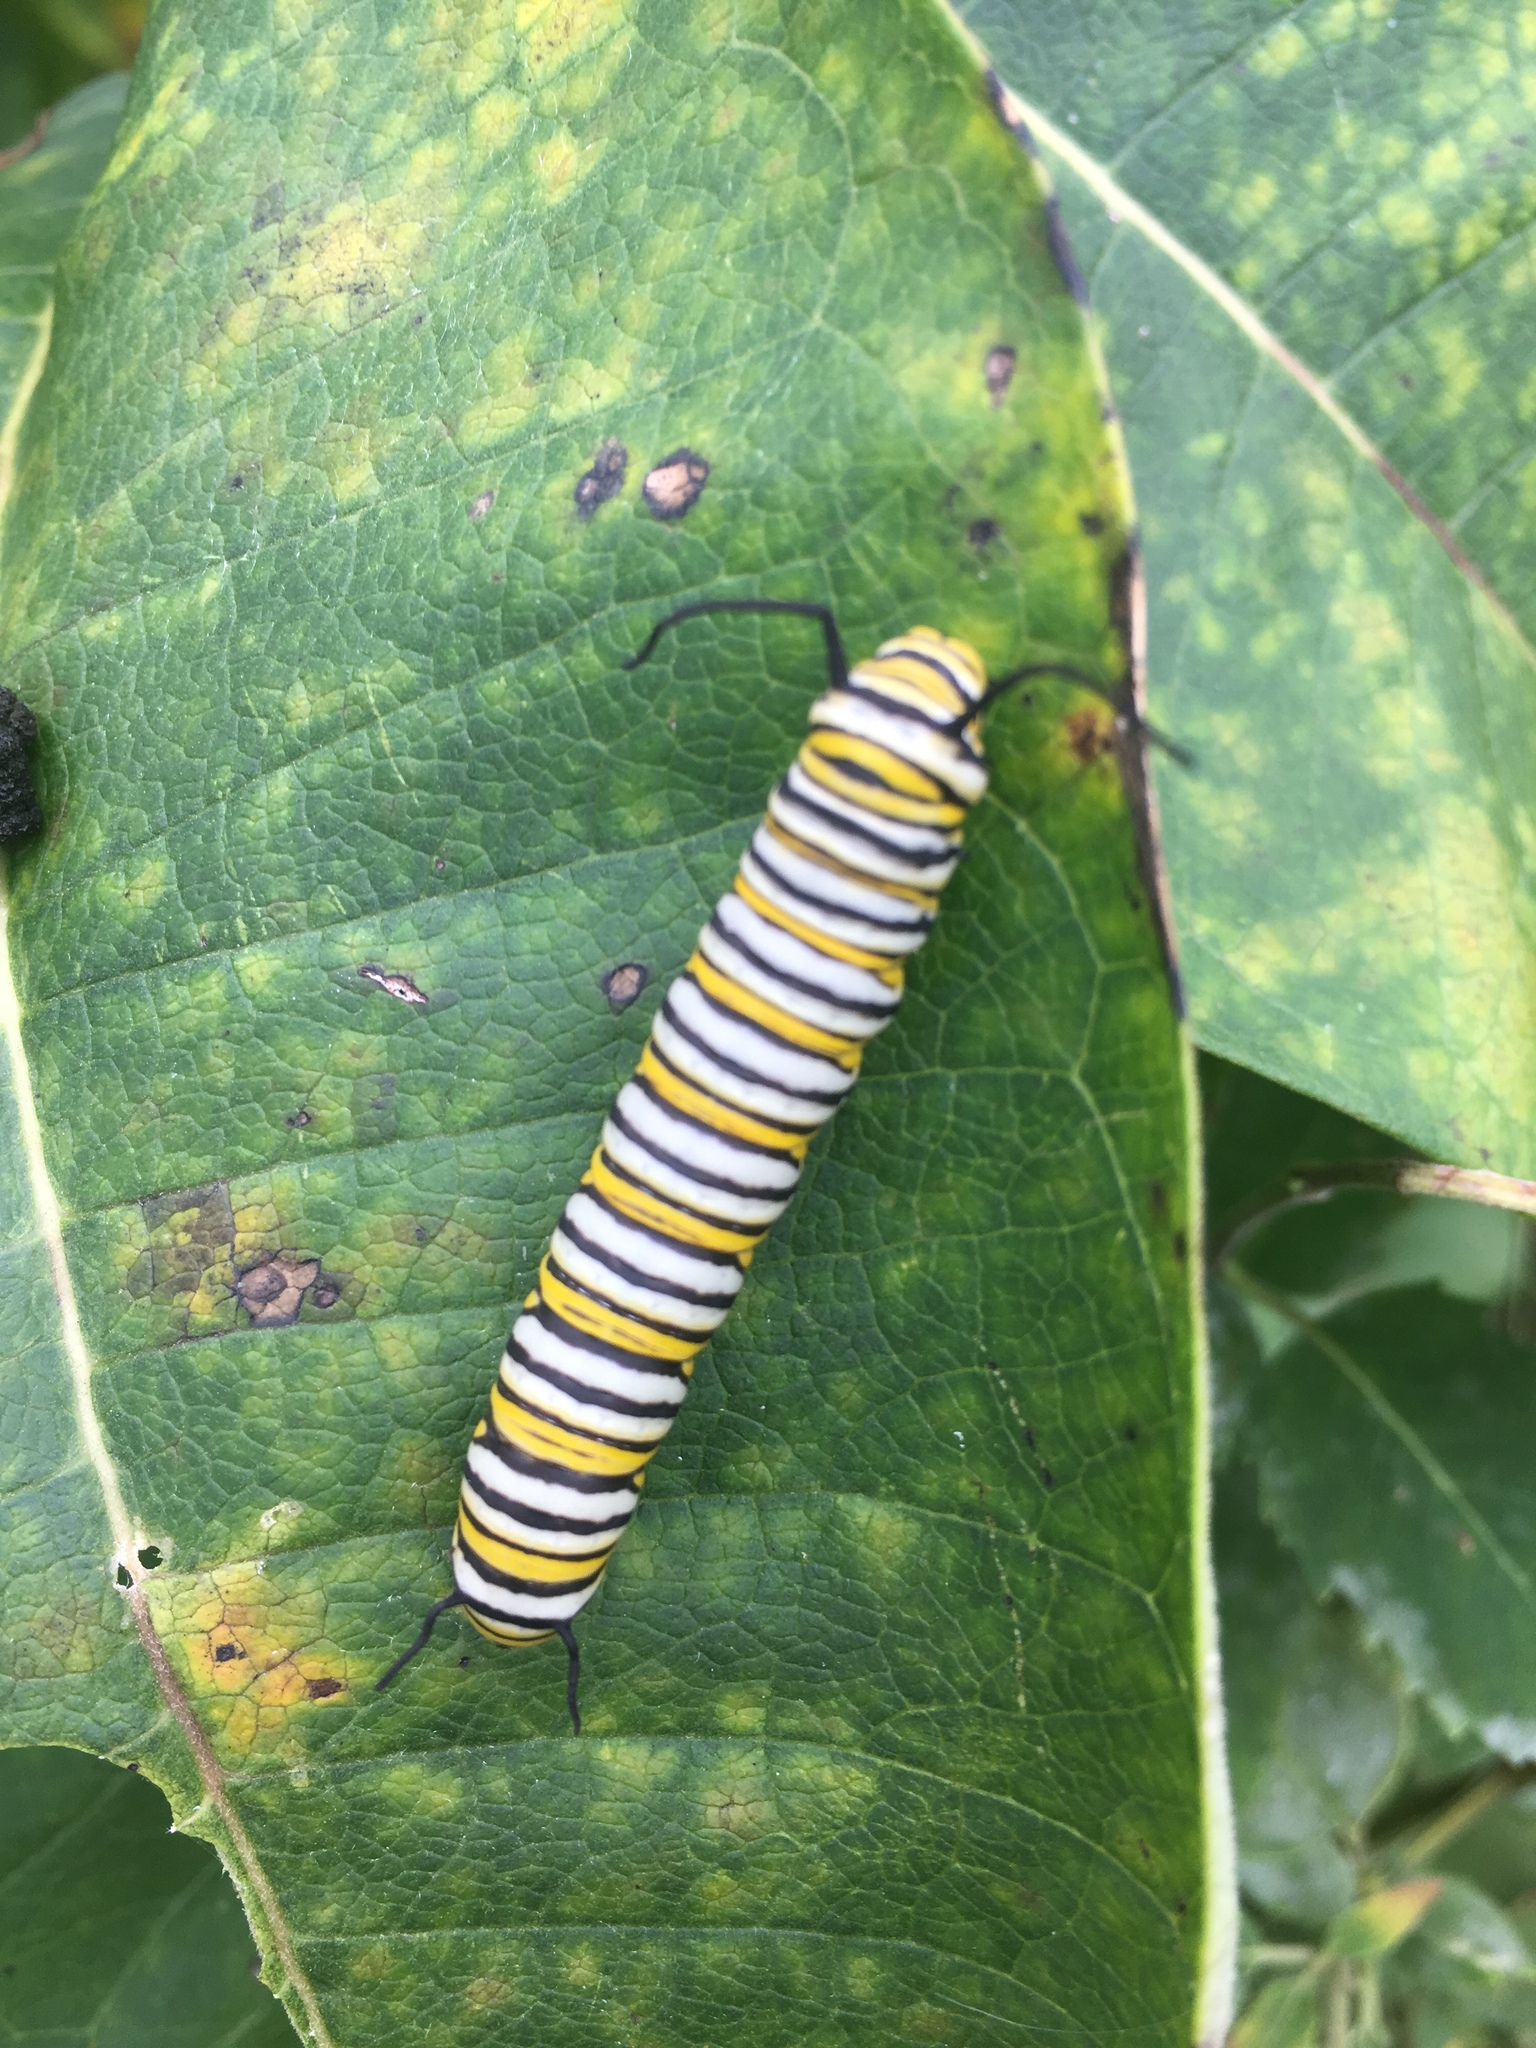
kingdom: Animalia
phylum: Arthropoda
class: Insecta
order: Lepidoptera
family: Nymphalidae
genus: Danaus
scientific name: Danaus plexippus
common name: Monarch
